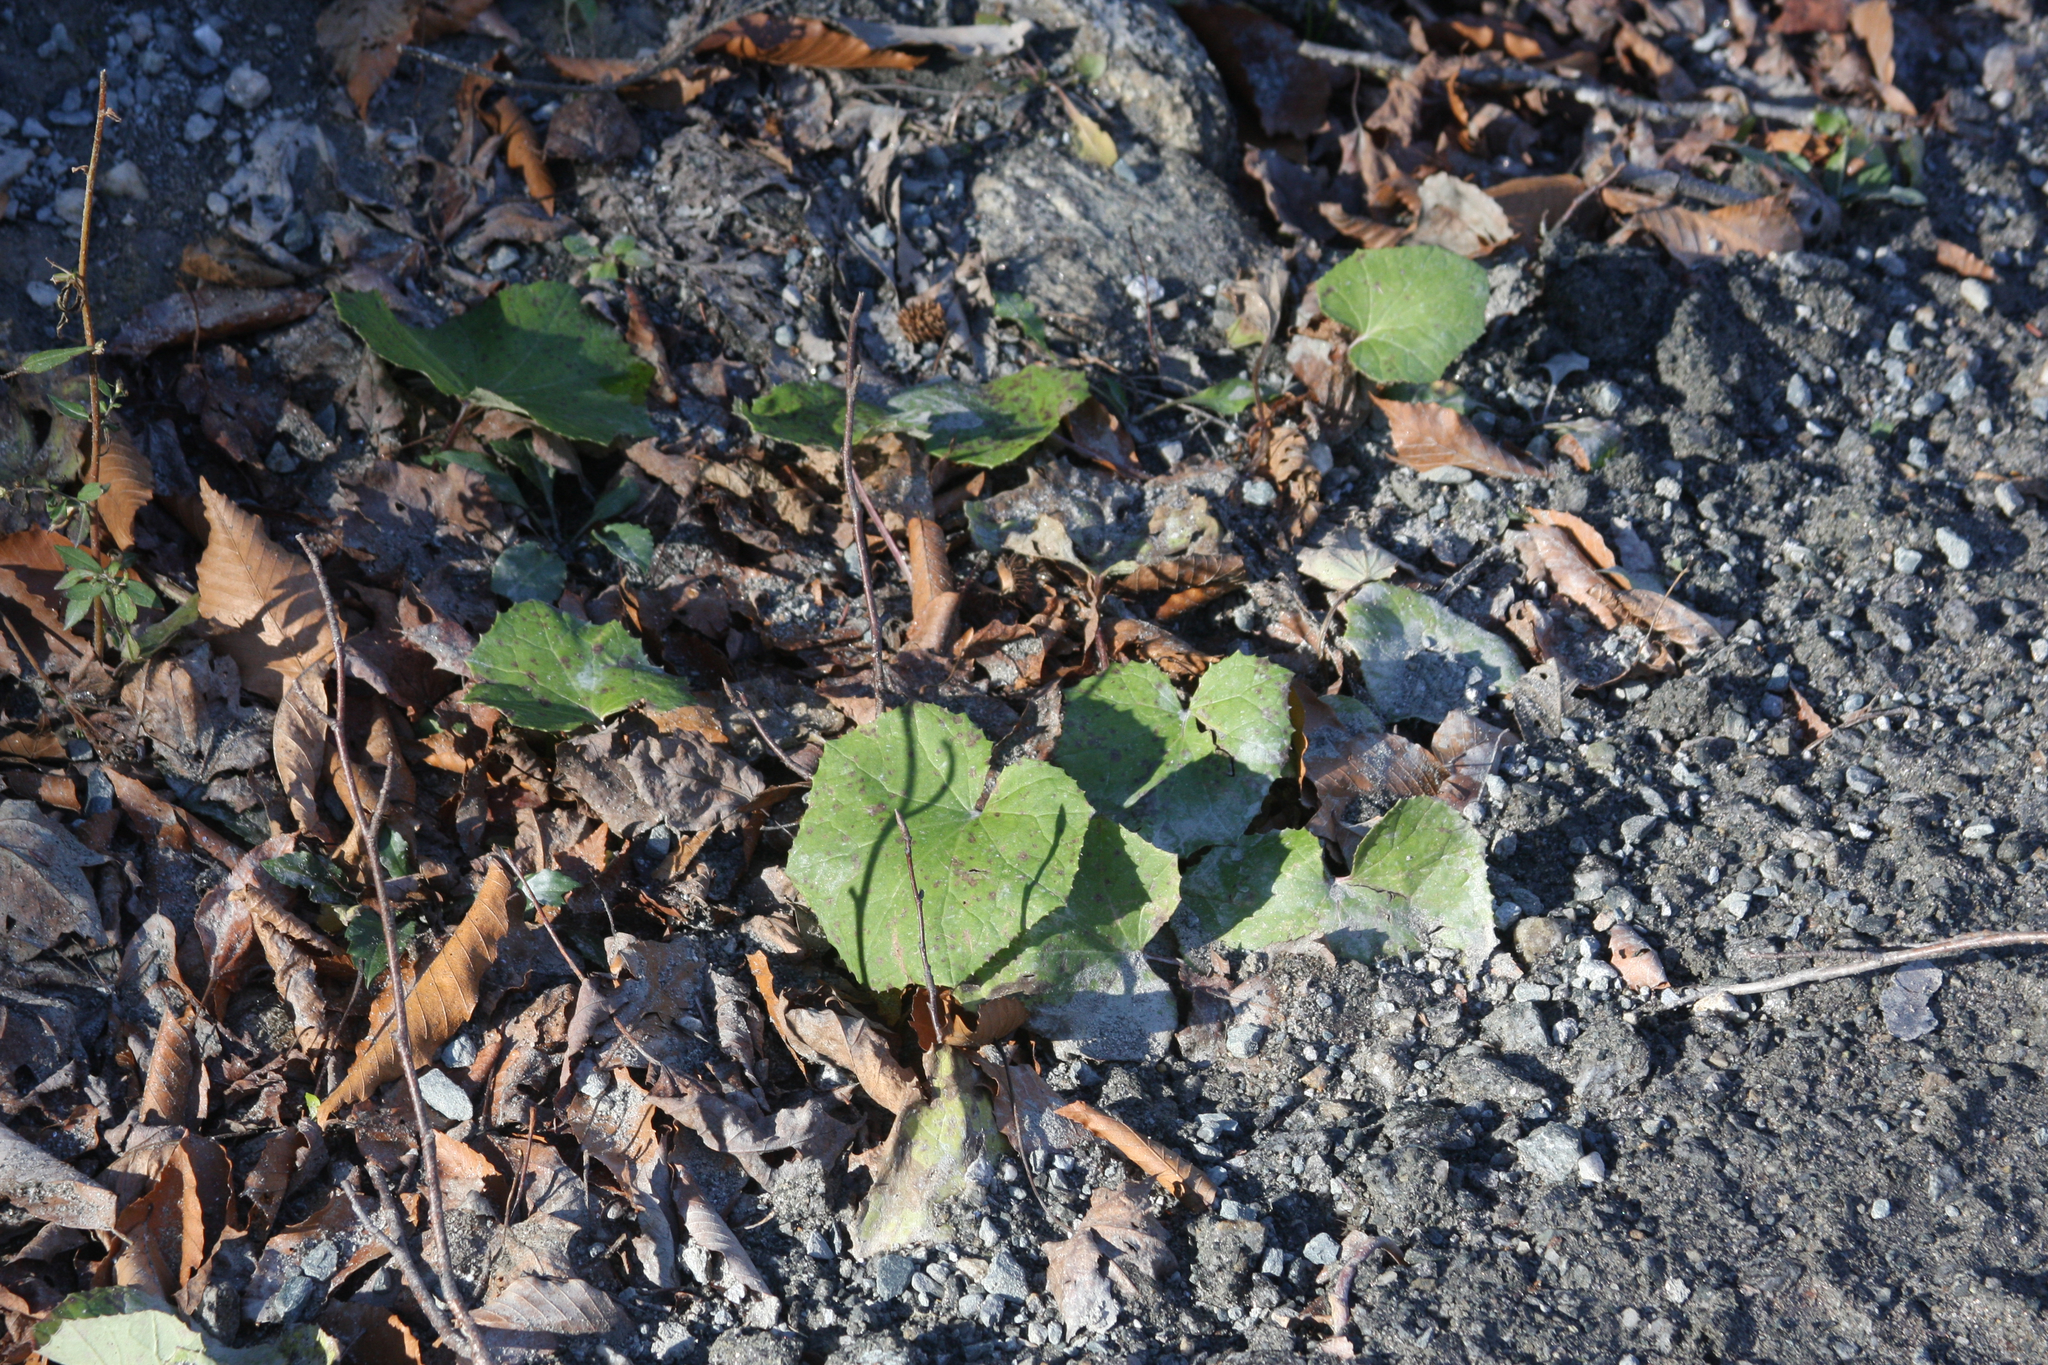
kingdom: Plantae
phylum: Tracheophyta
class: Magnoliopsida
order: Asterales
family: Asteraceae
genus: Tussilago
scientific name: Tussilago farfara
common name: Coltsfoot
